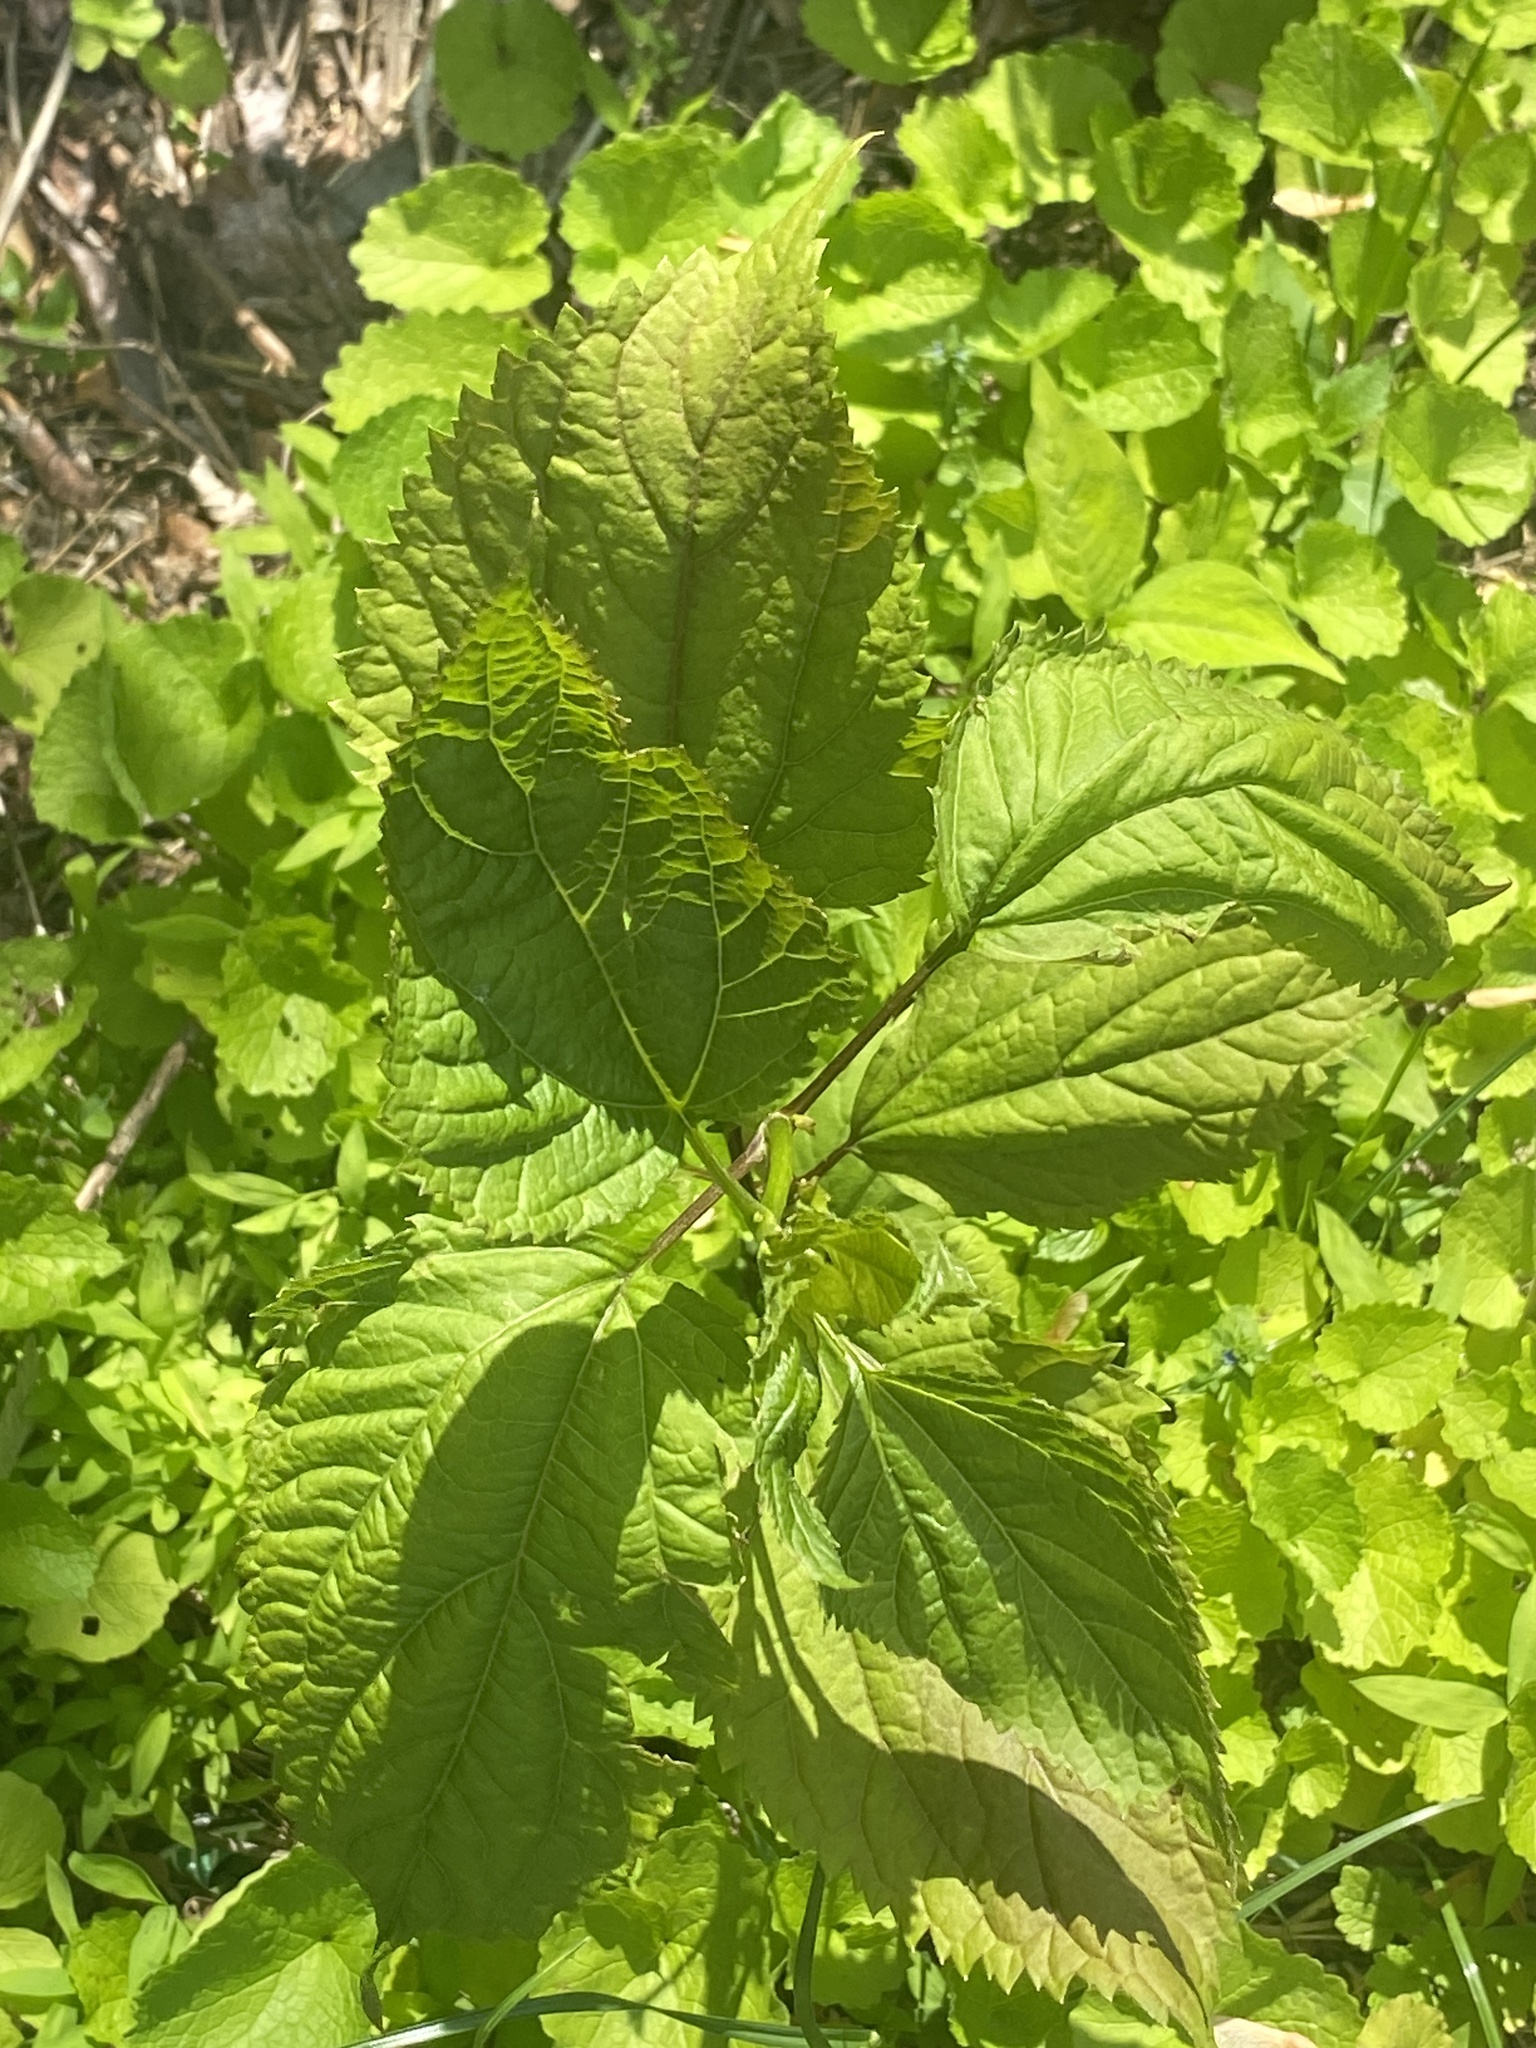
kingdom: Plantae
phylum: Tracheophyta
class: Magnoliopsida
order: Asterales
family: Asteraceae
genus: Ageratina
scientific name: Ageratina altissima
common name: White snakeroot
